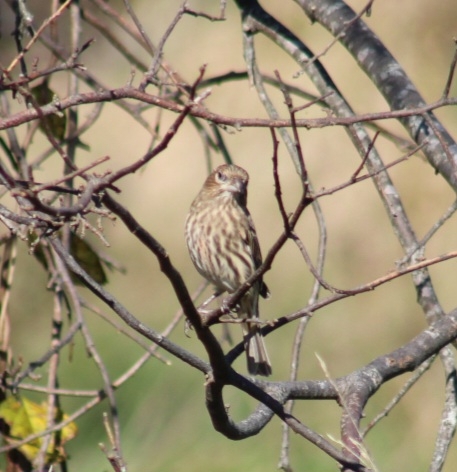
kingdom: Animalia
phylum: Chordata
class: Aves
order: Passeriformes
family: Fringillidae
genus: Haemorhous
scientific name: Haemorhous mexicanus
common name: House finch
